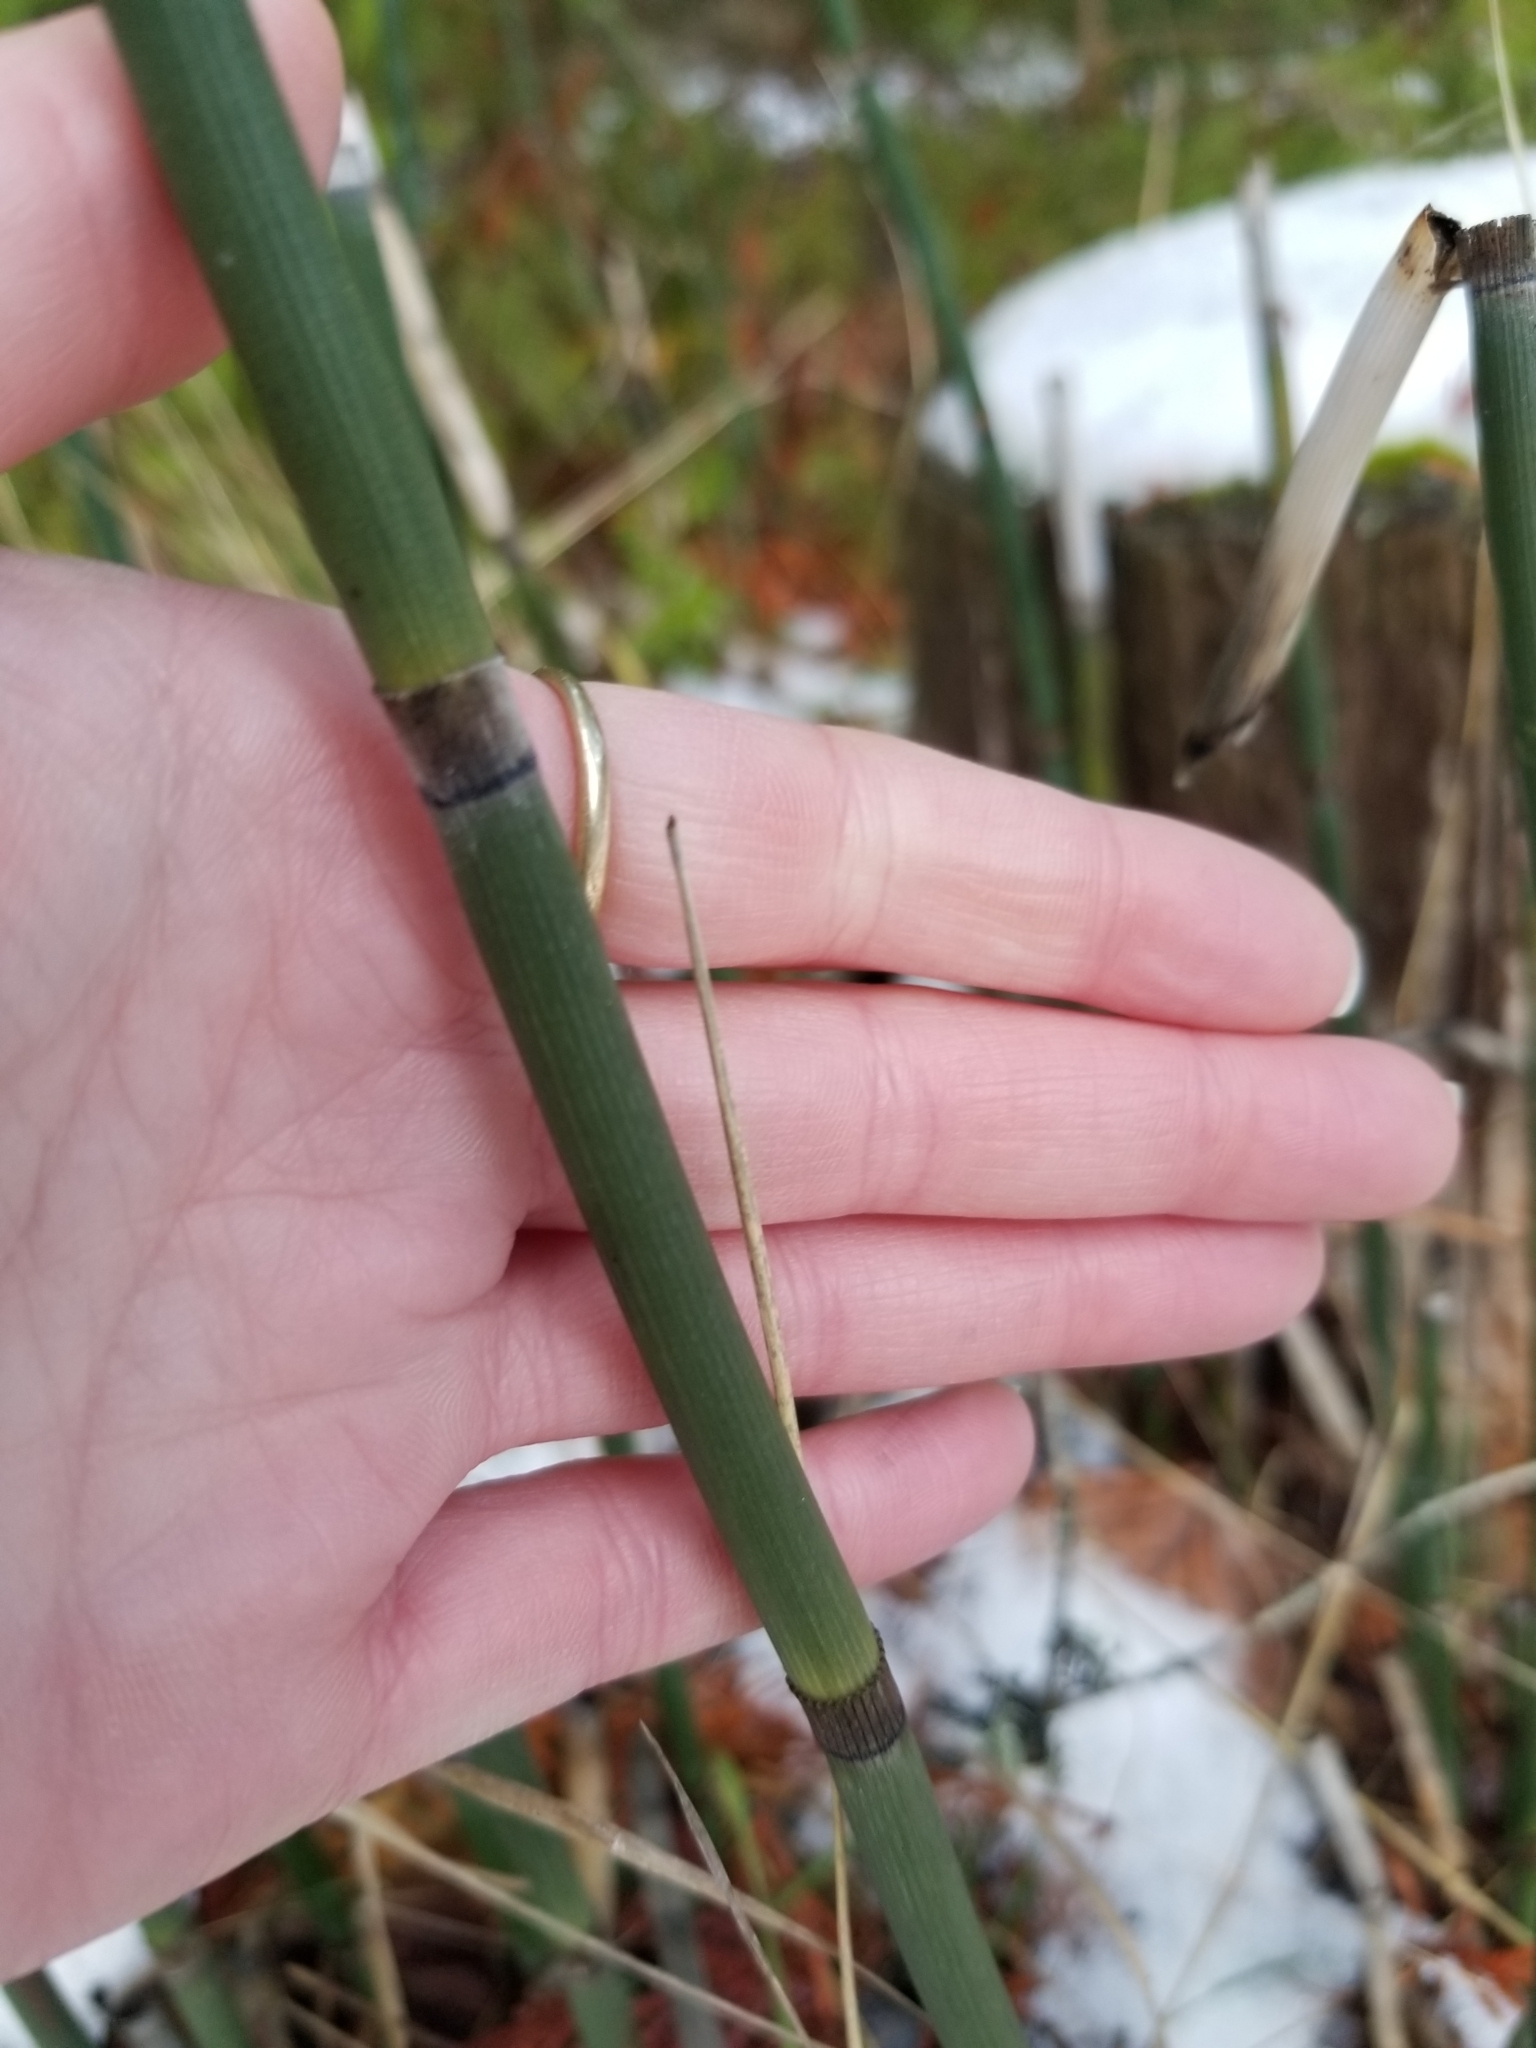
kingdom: Plantae
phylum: Tracheophyta
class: Polypodiopsida
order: Equisetales
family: Equisetaceae
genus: Equisetum
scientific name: Equisetum hyemale
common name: Rough horsetail
